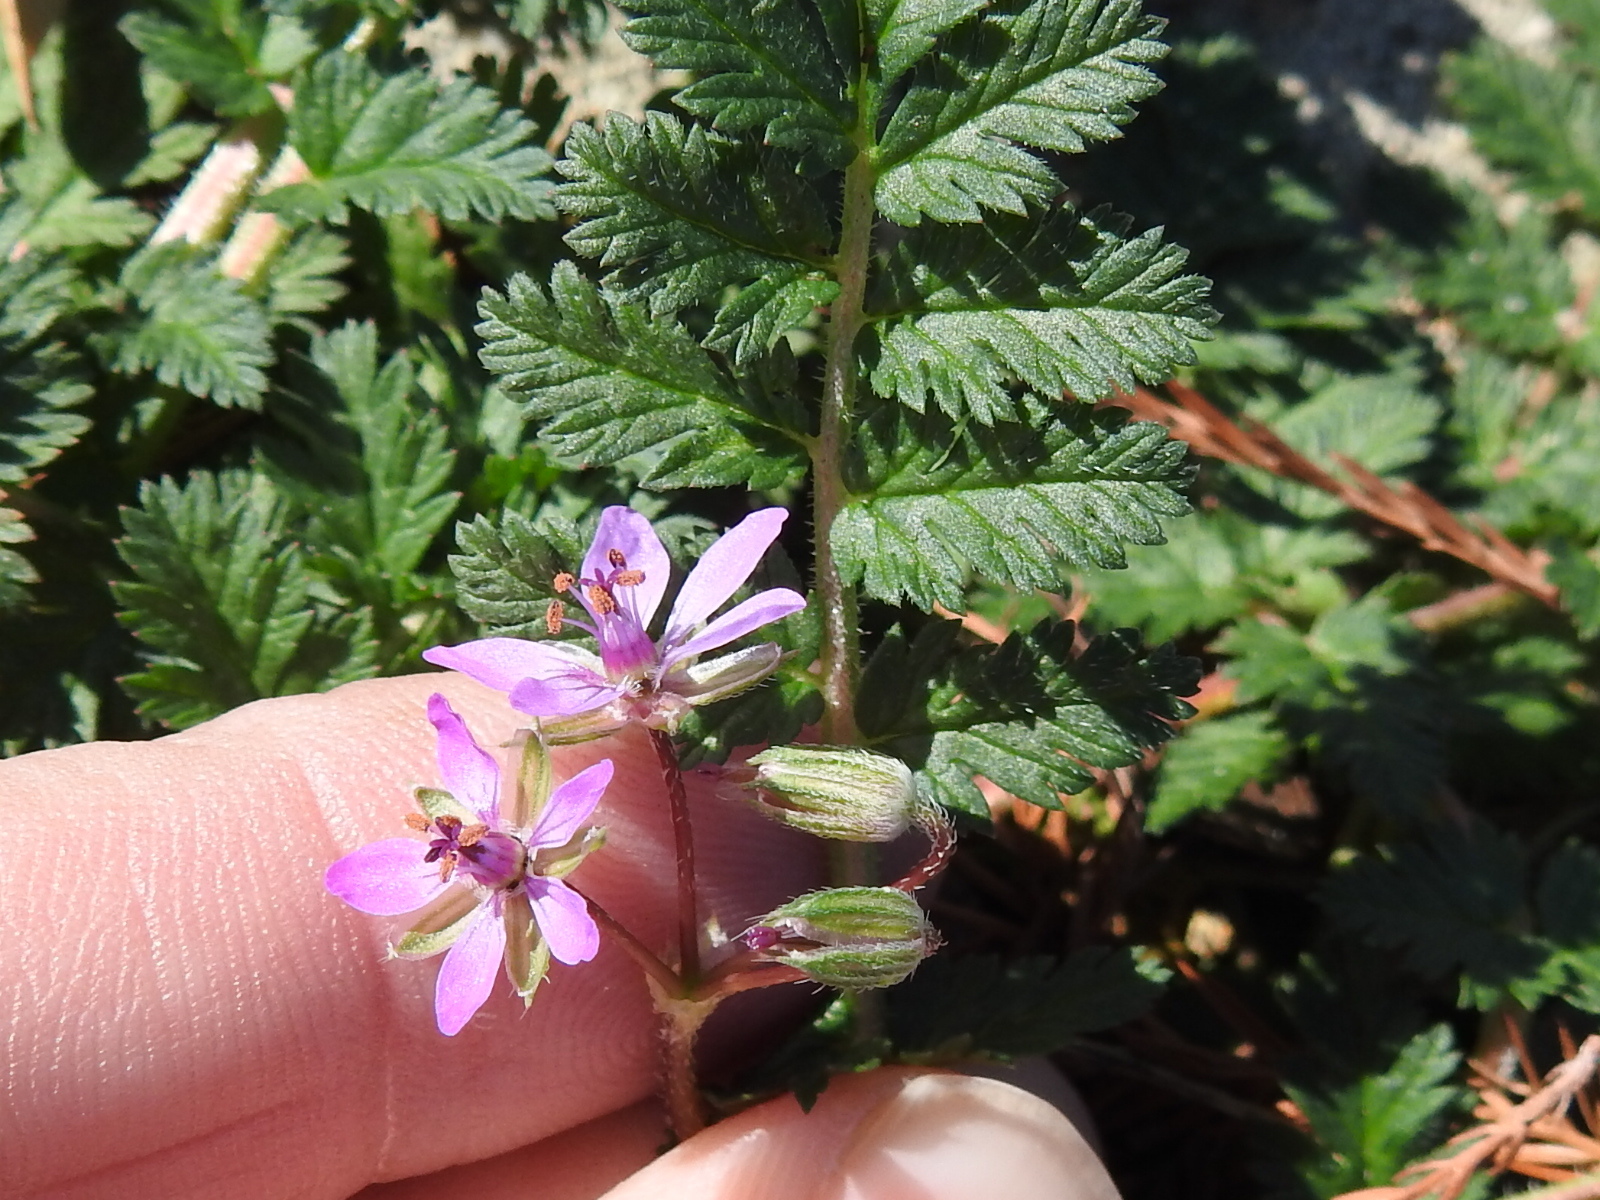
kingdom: Plantae
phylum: Tracheophyta
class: Magnoliopsida
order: Geraniales
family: Geraniaceae
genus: Erodium
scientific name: Erodium cicutarium
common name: Common stork's-bill
